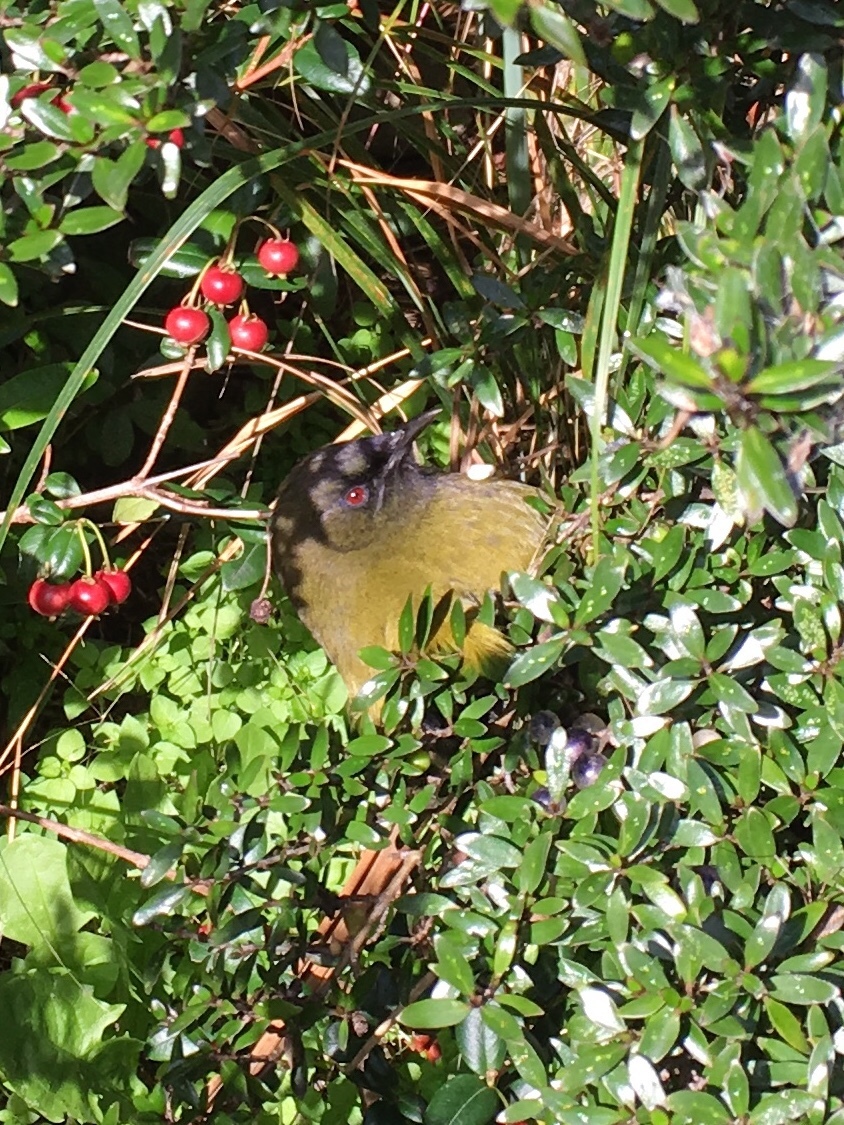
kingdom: Animalia
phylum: Chordata
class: Aves
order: Passeriformes
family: Meliphagidae
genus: Anthornis
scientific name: Anthornis melanura
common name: New zealand bellbird
